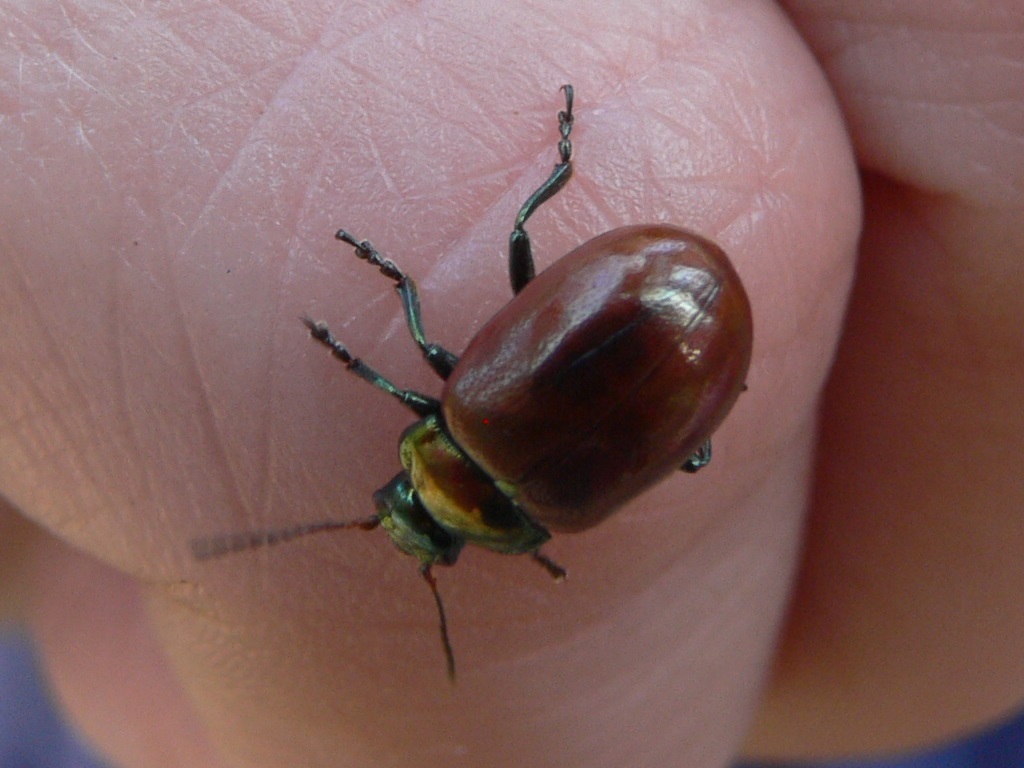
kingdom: Animalia
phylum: Arthropoda
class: Insecta
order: Coleoptera
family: Chrysomelidae
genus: Chrysomela
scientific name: Chrysomela polita
